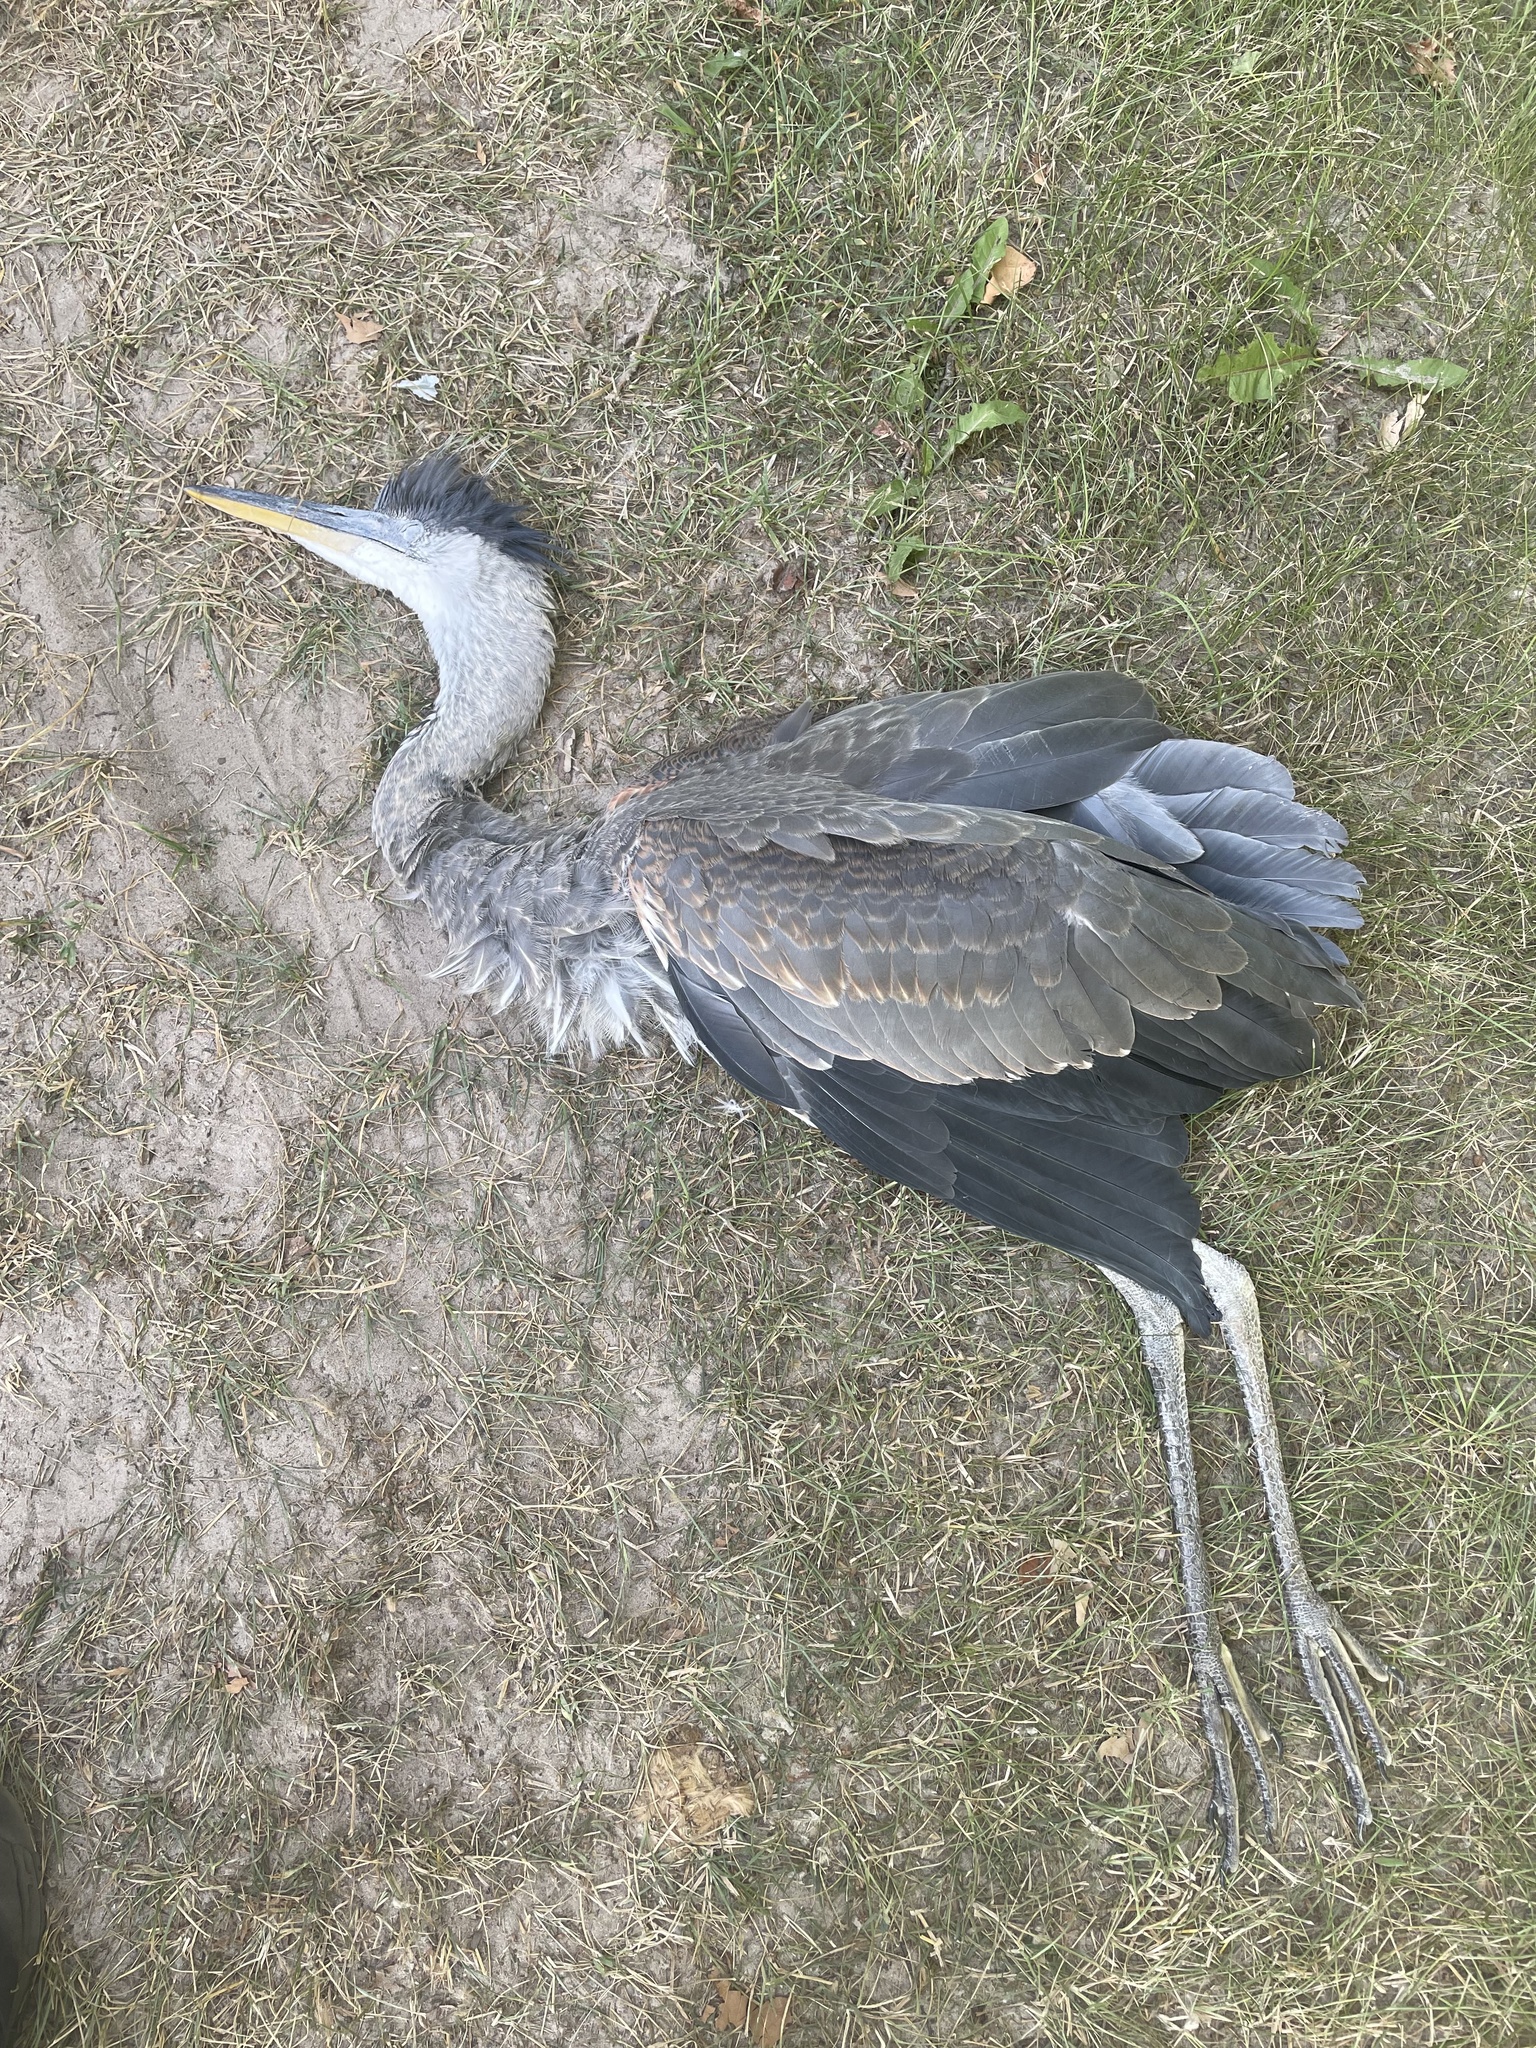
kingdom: Animalia
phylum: Chordata
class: Aves
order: Pelecaniformes
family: Ardeidae
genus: Ardea
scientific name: Ardea herodias
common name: Great blue heron
